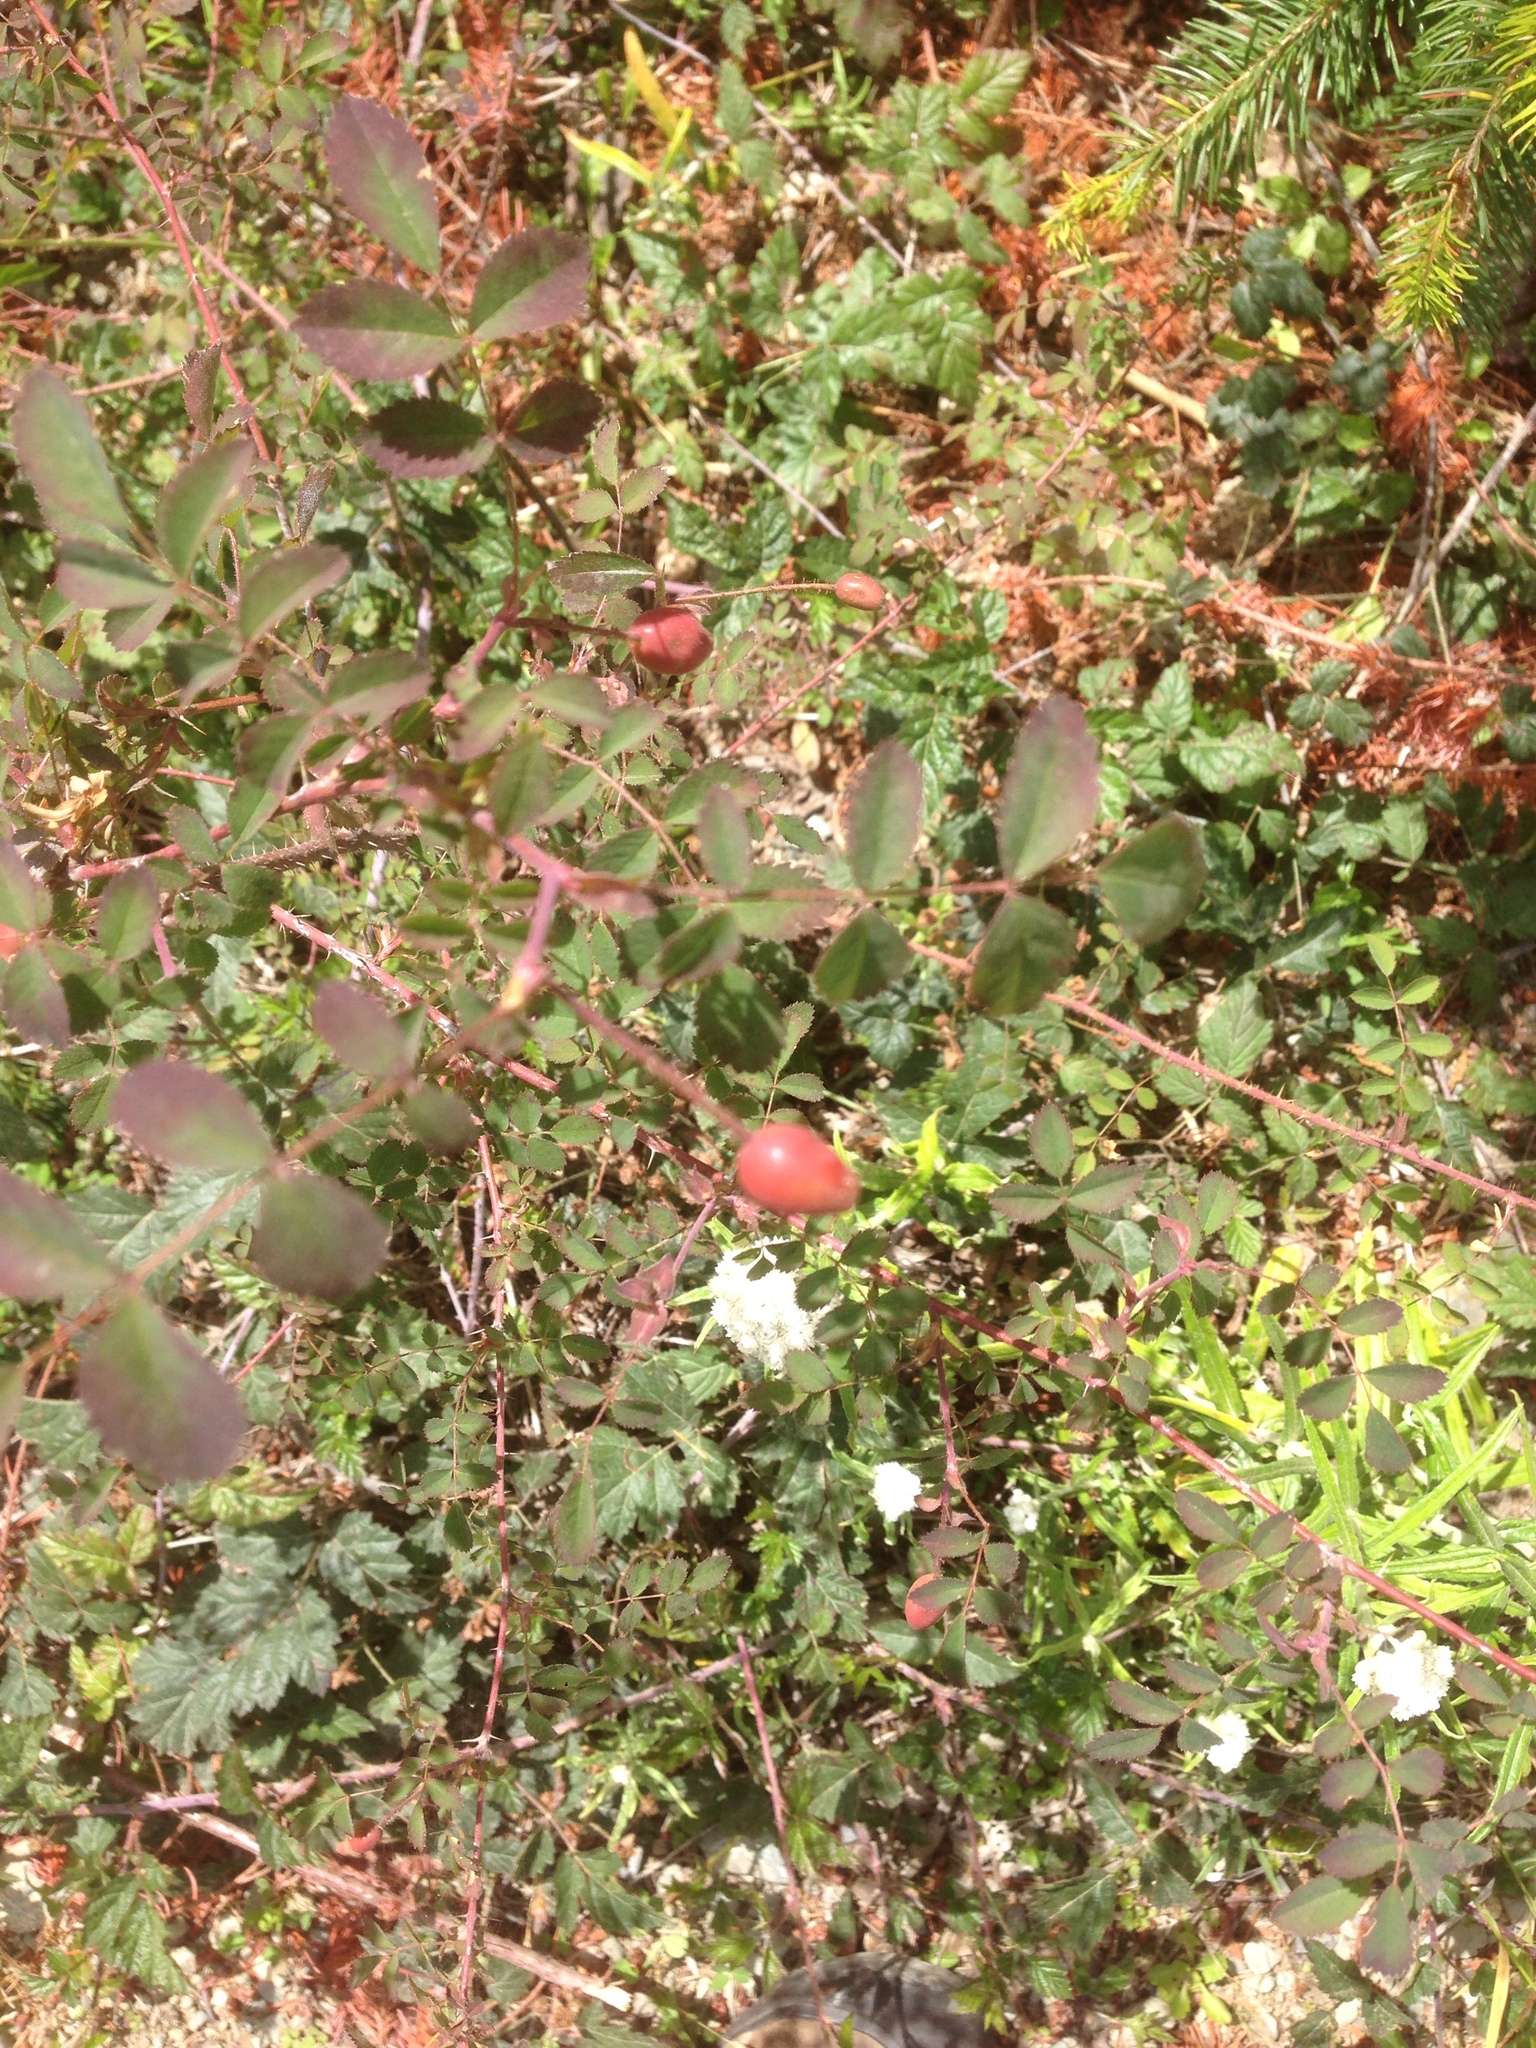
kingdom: Plantae
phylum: Tracheophyta
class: Magnoliopsida
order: Rosales
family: Rosaceae
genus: Rosa
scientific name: Rosa gymnocarpa
